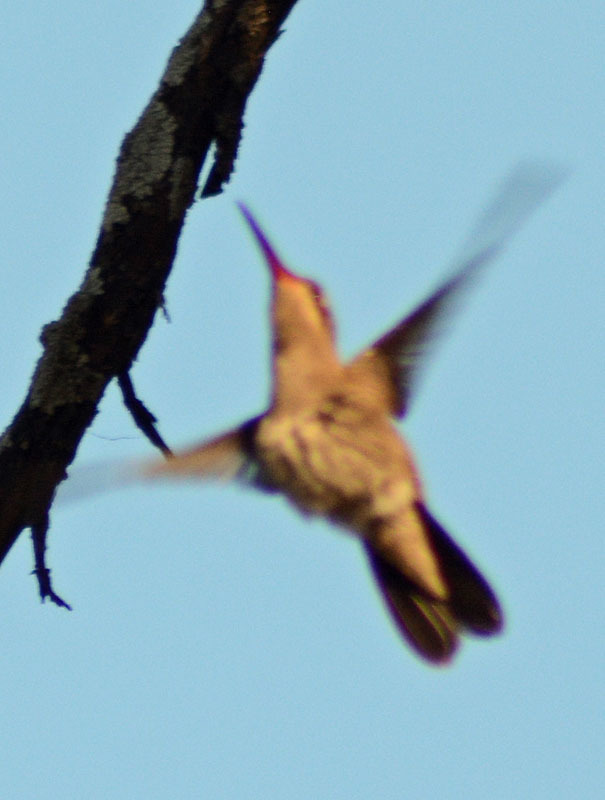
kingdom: Animalia
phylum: Chordata
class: Aves
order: Apodiformes
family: Trochilidae
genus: Phaeoptila
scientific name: Phaeoptila sordida
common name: Dusky hummingbird
